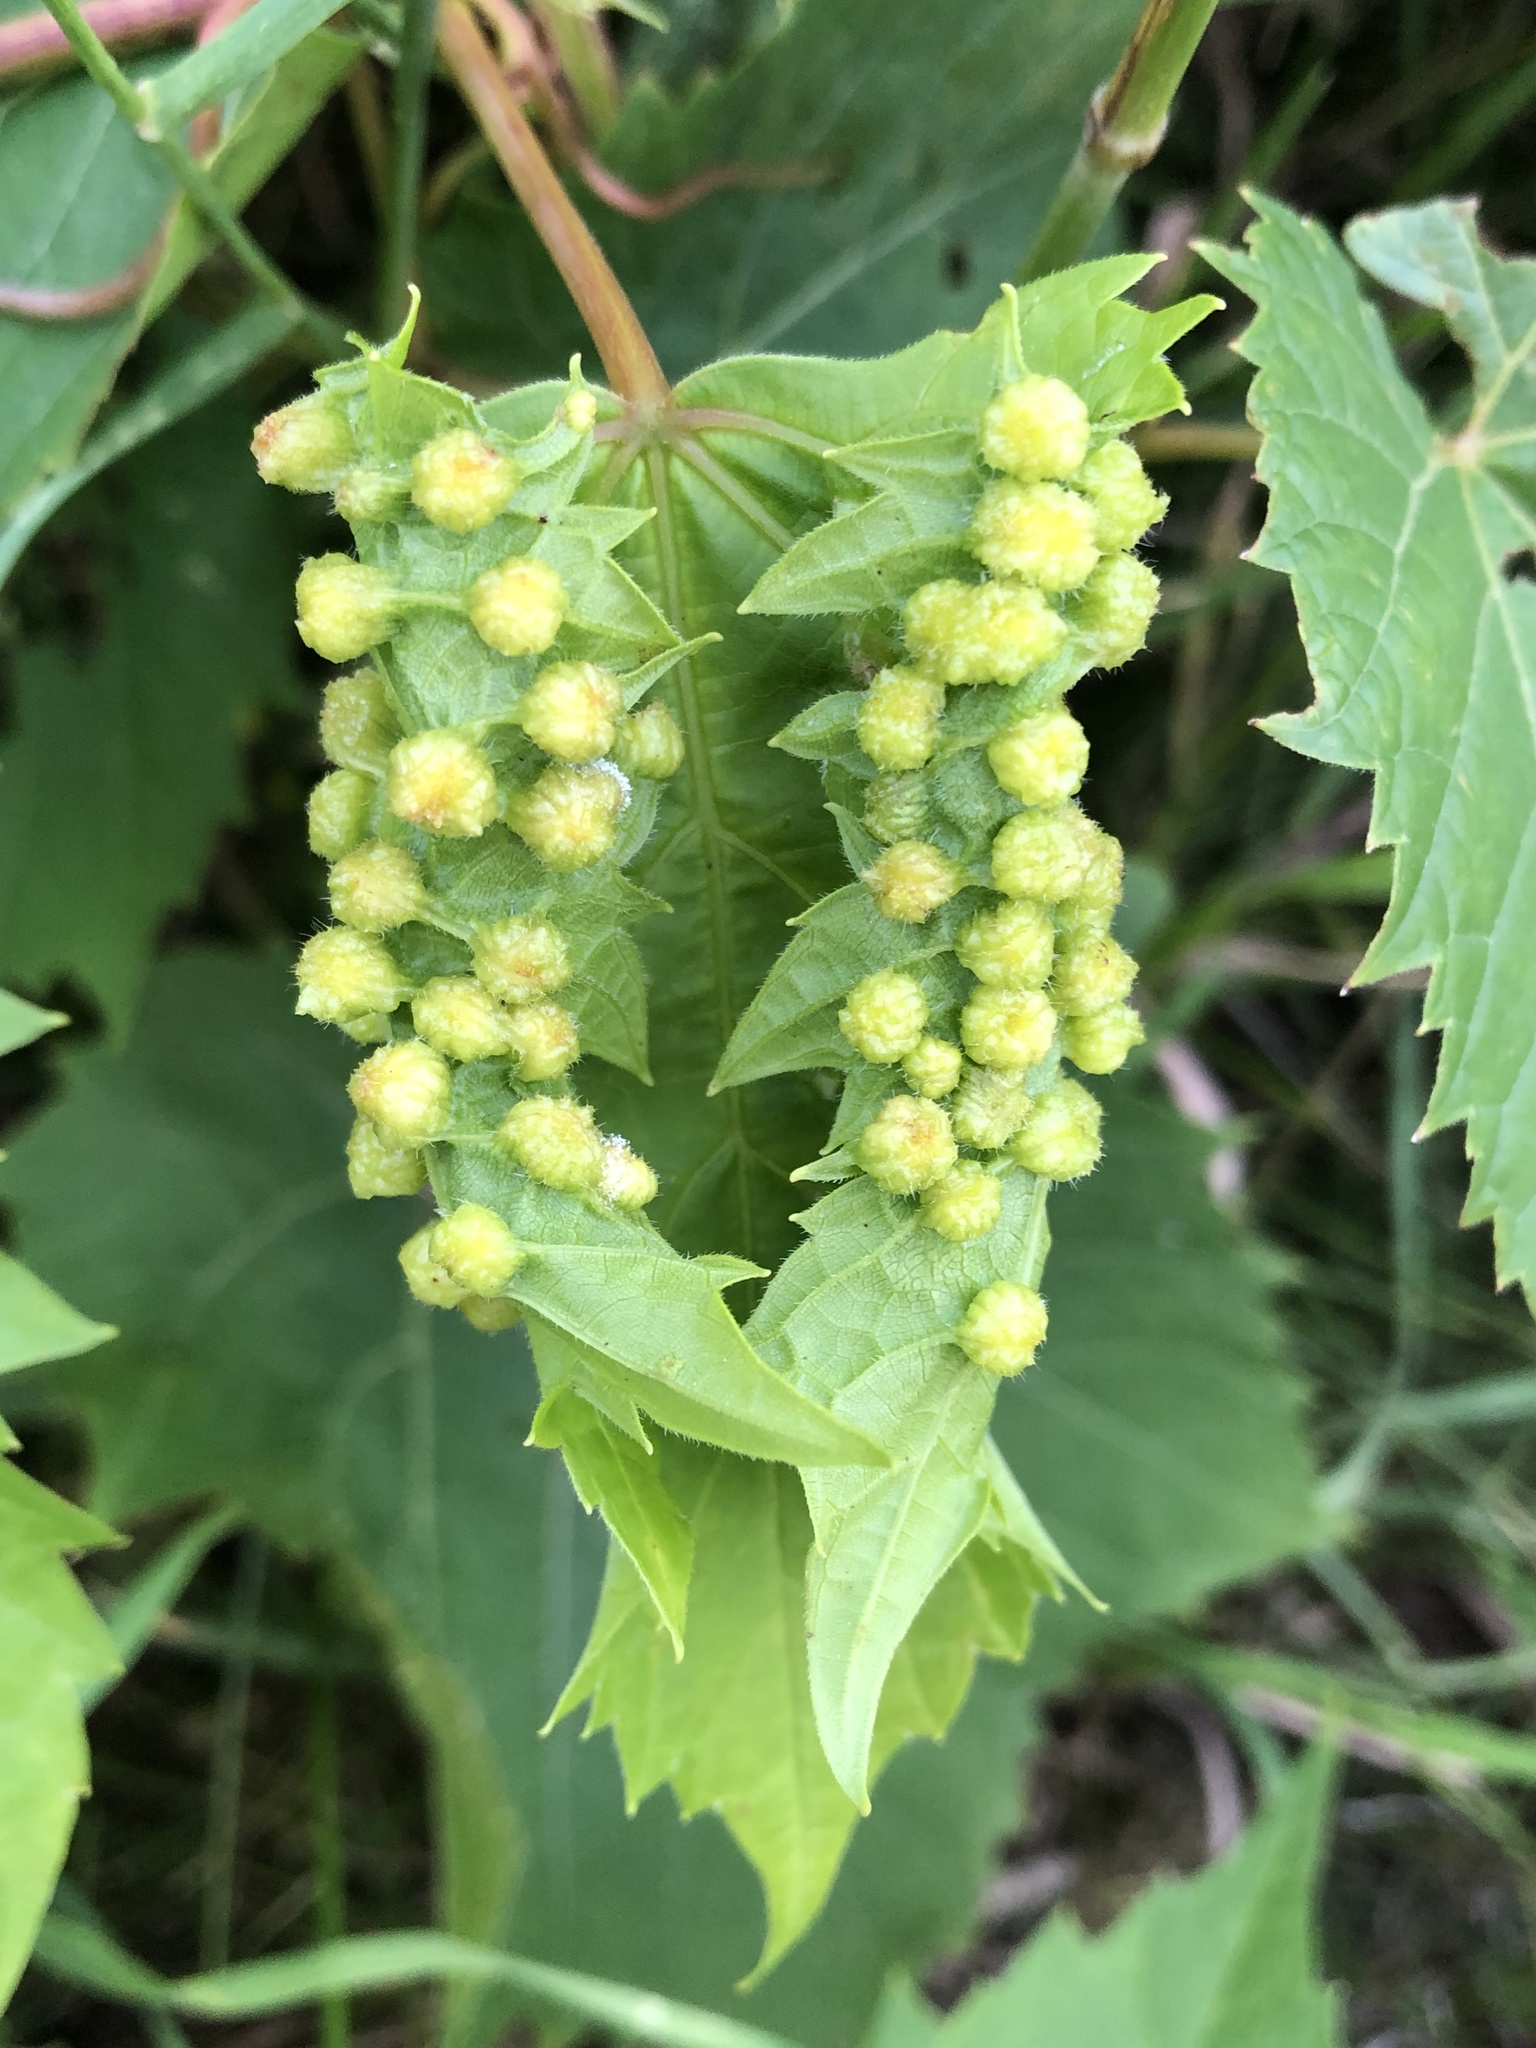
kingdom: Animalia
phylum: Arthropoda
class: Insecta
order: Hemiptera
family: Phylloxeridae
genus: Daktulosphaira
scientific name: Daktulosphaira vitifoliae
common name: Grape phylloxera
